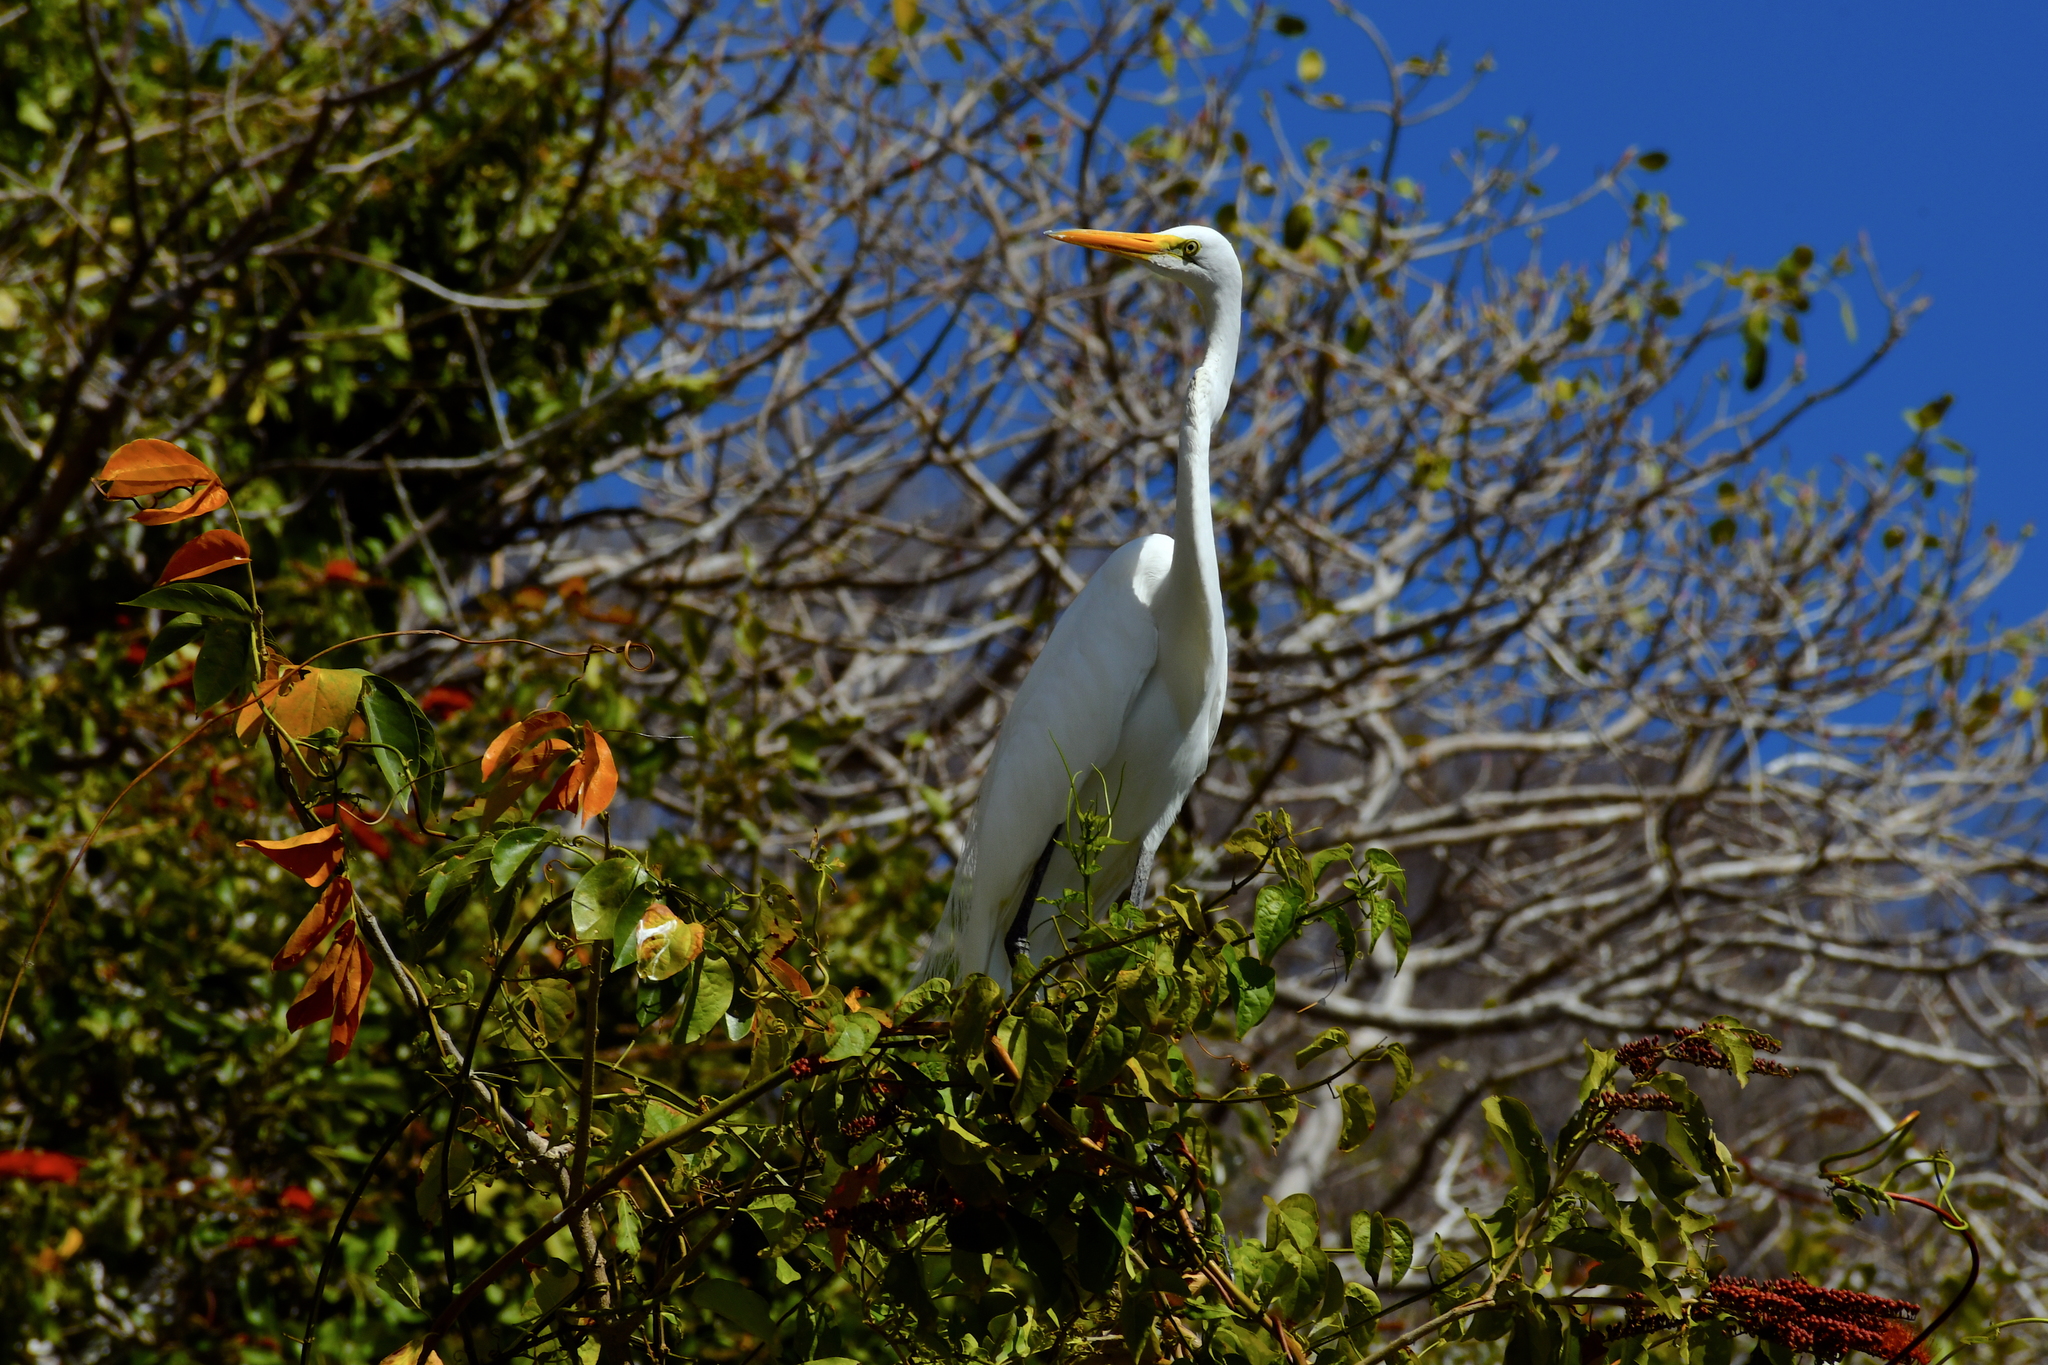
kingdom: Animalia
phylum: Chordata
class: Aves
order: Pelecaniformes
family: Ardeidae
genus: Ardea
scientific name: Ardea alba
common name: Great egret
